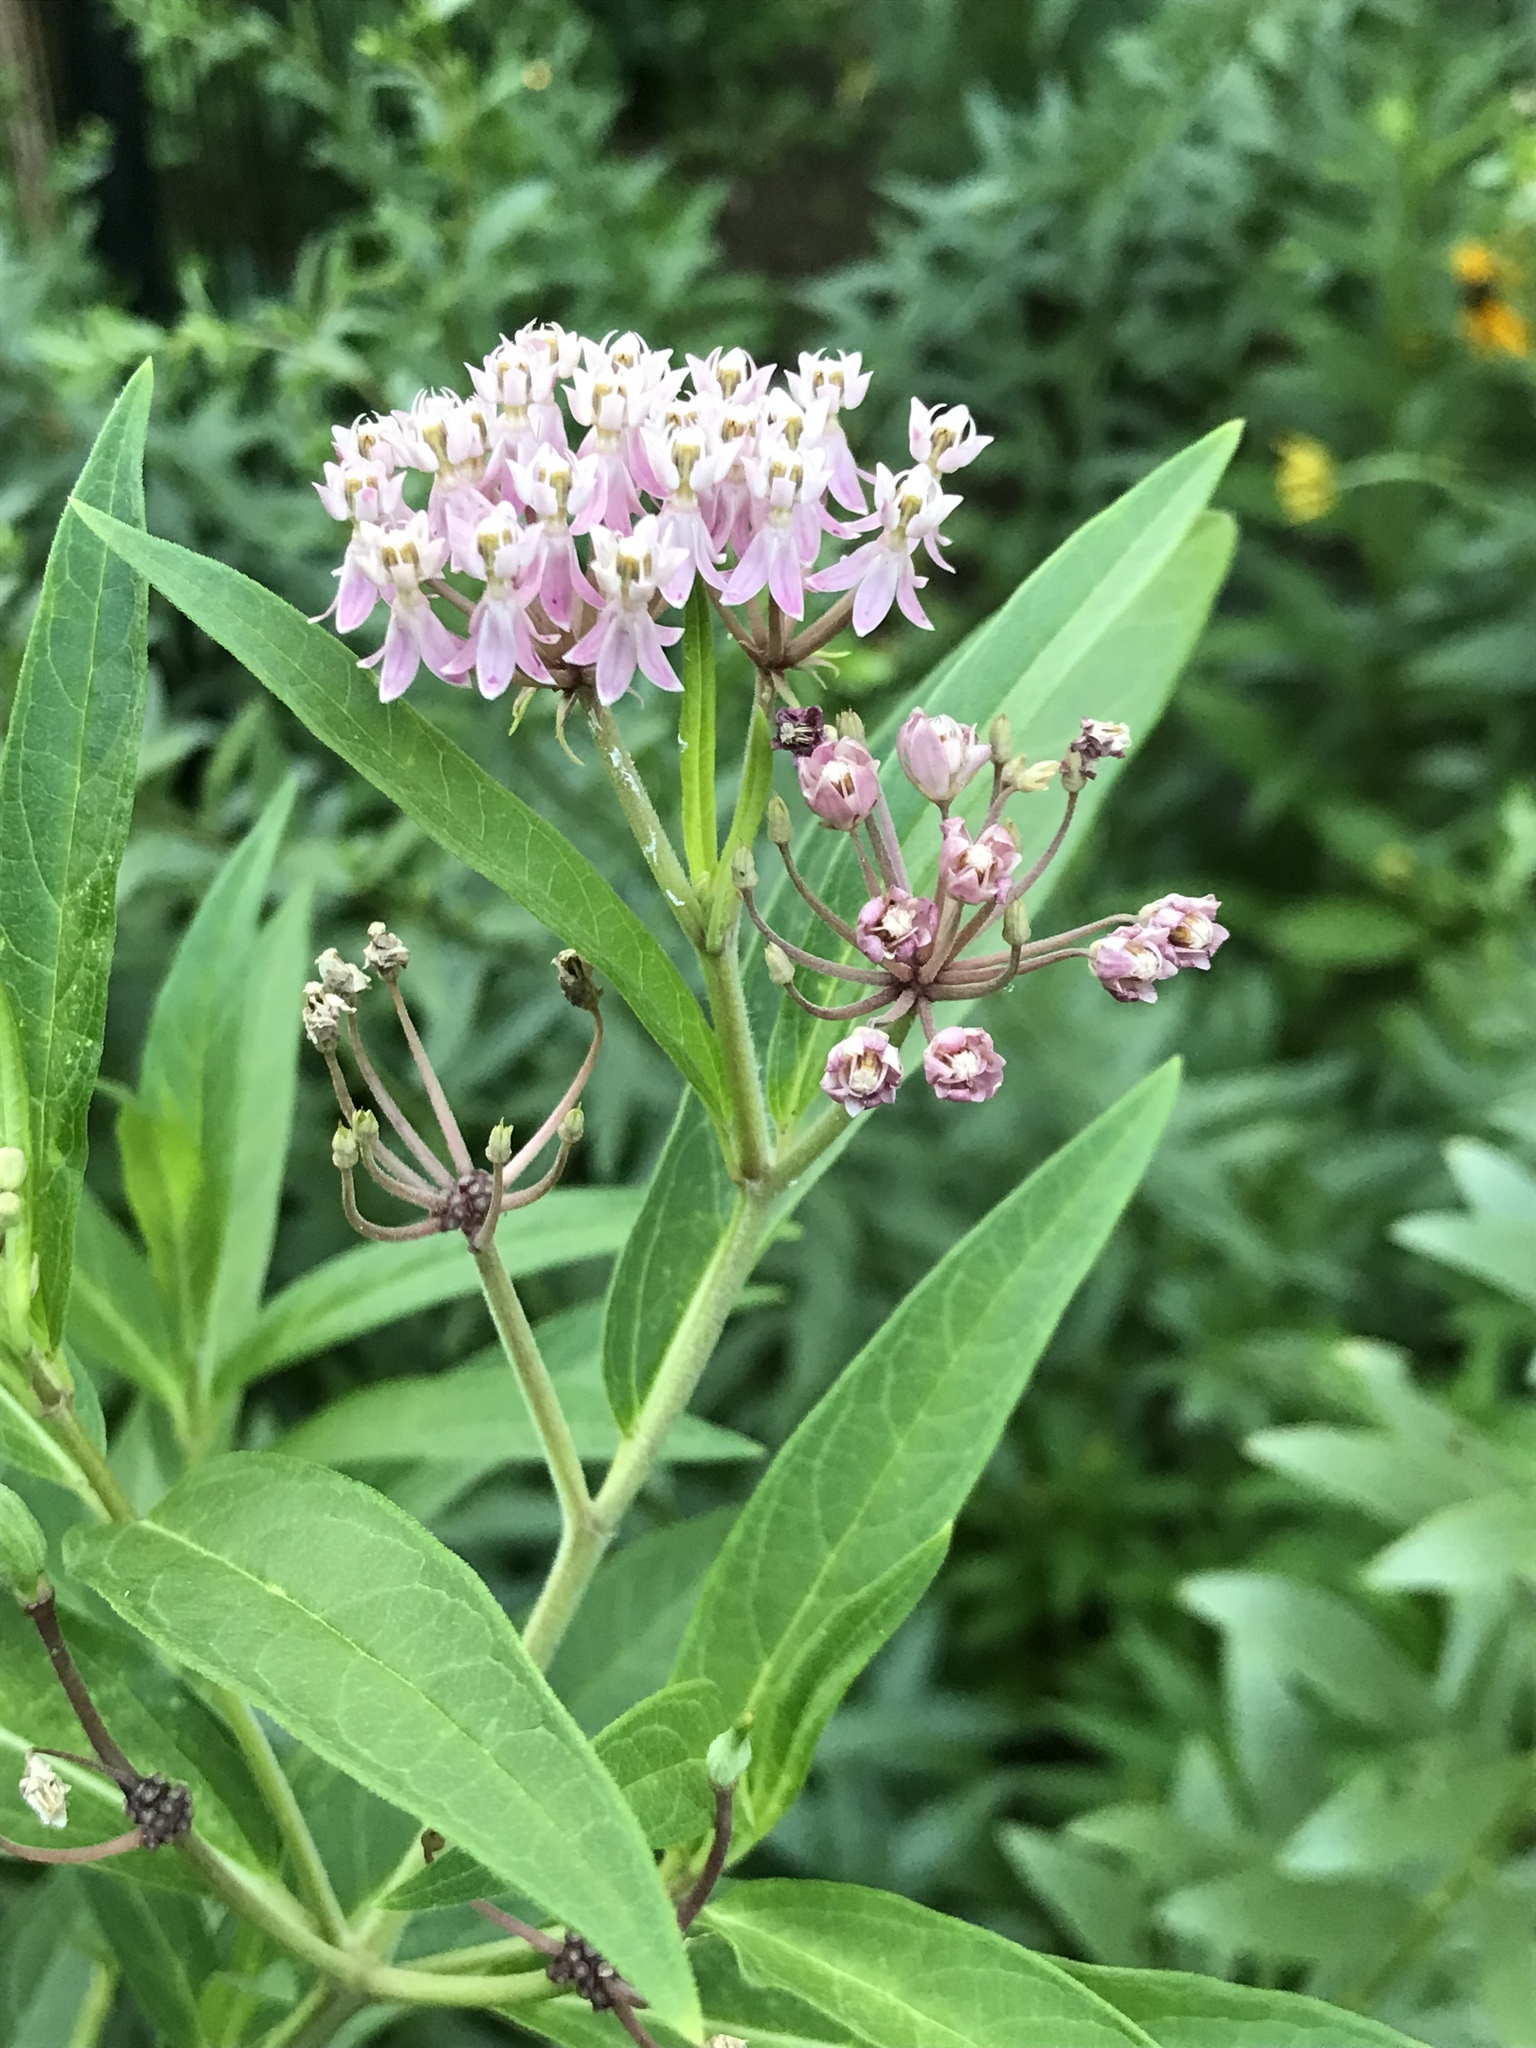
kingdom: Plantae
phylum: Tracheophyta
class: Magnoliopsida
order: Gentianales
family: Apocynaceae
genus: Asclepias
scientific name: Asclepias incarnata
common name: Swamp milkweed
